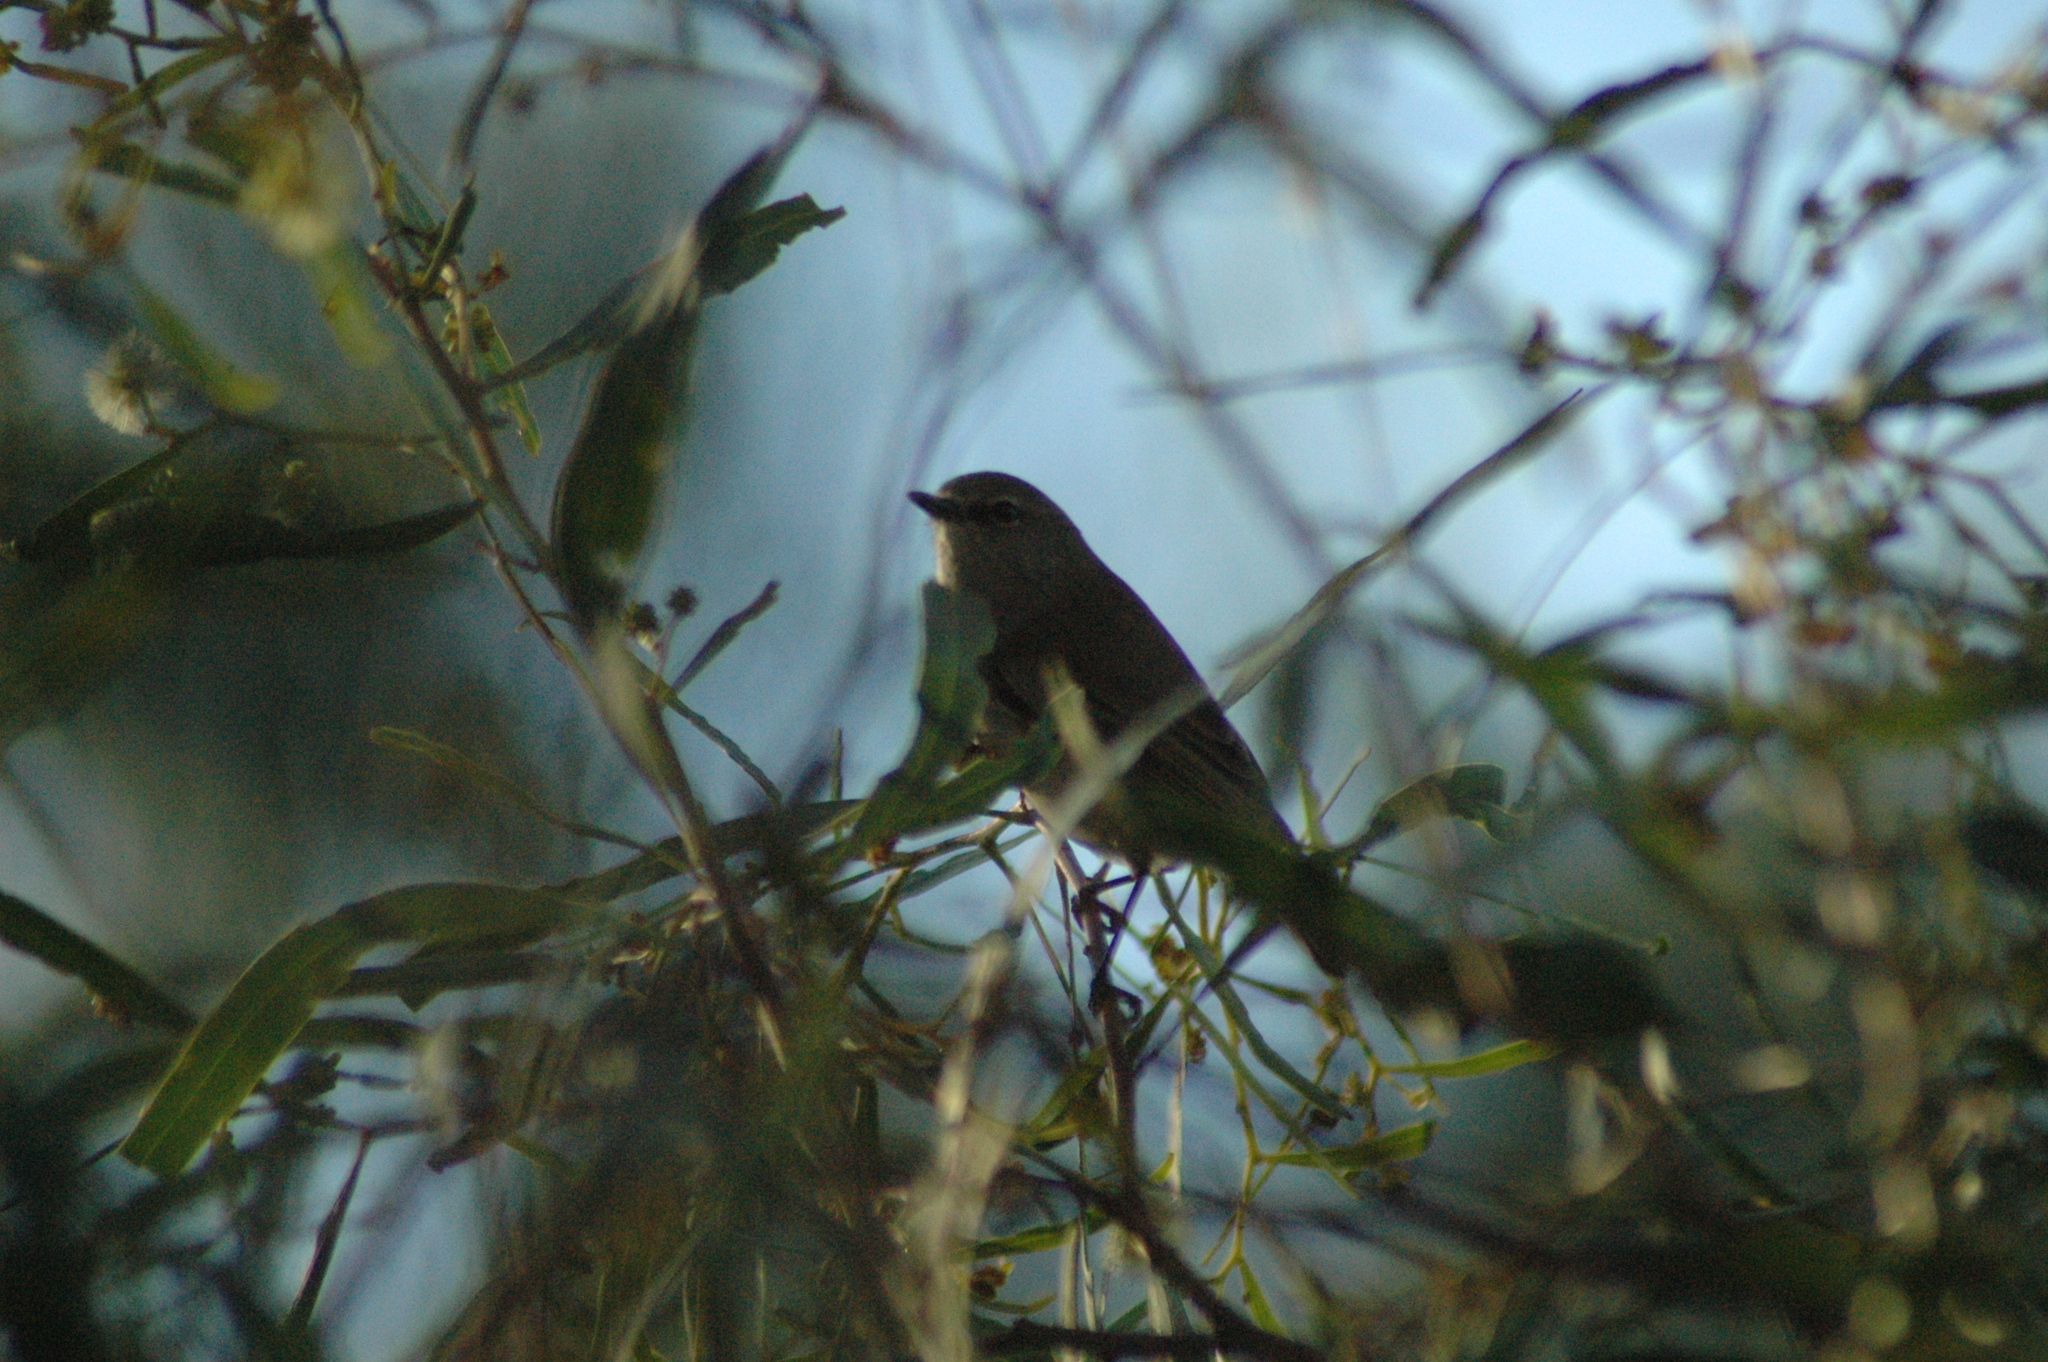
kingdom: Animalia
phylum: Chordata
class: Aves
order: Passeriformes
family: Acanthizidae
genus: Gerygone
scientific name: Gerygone fusca
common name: Western gerygone
